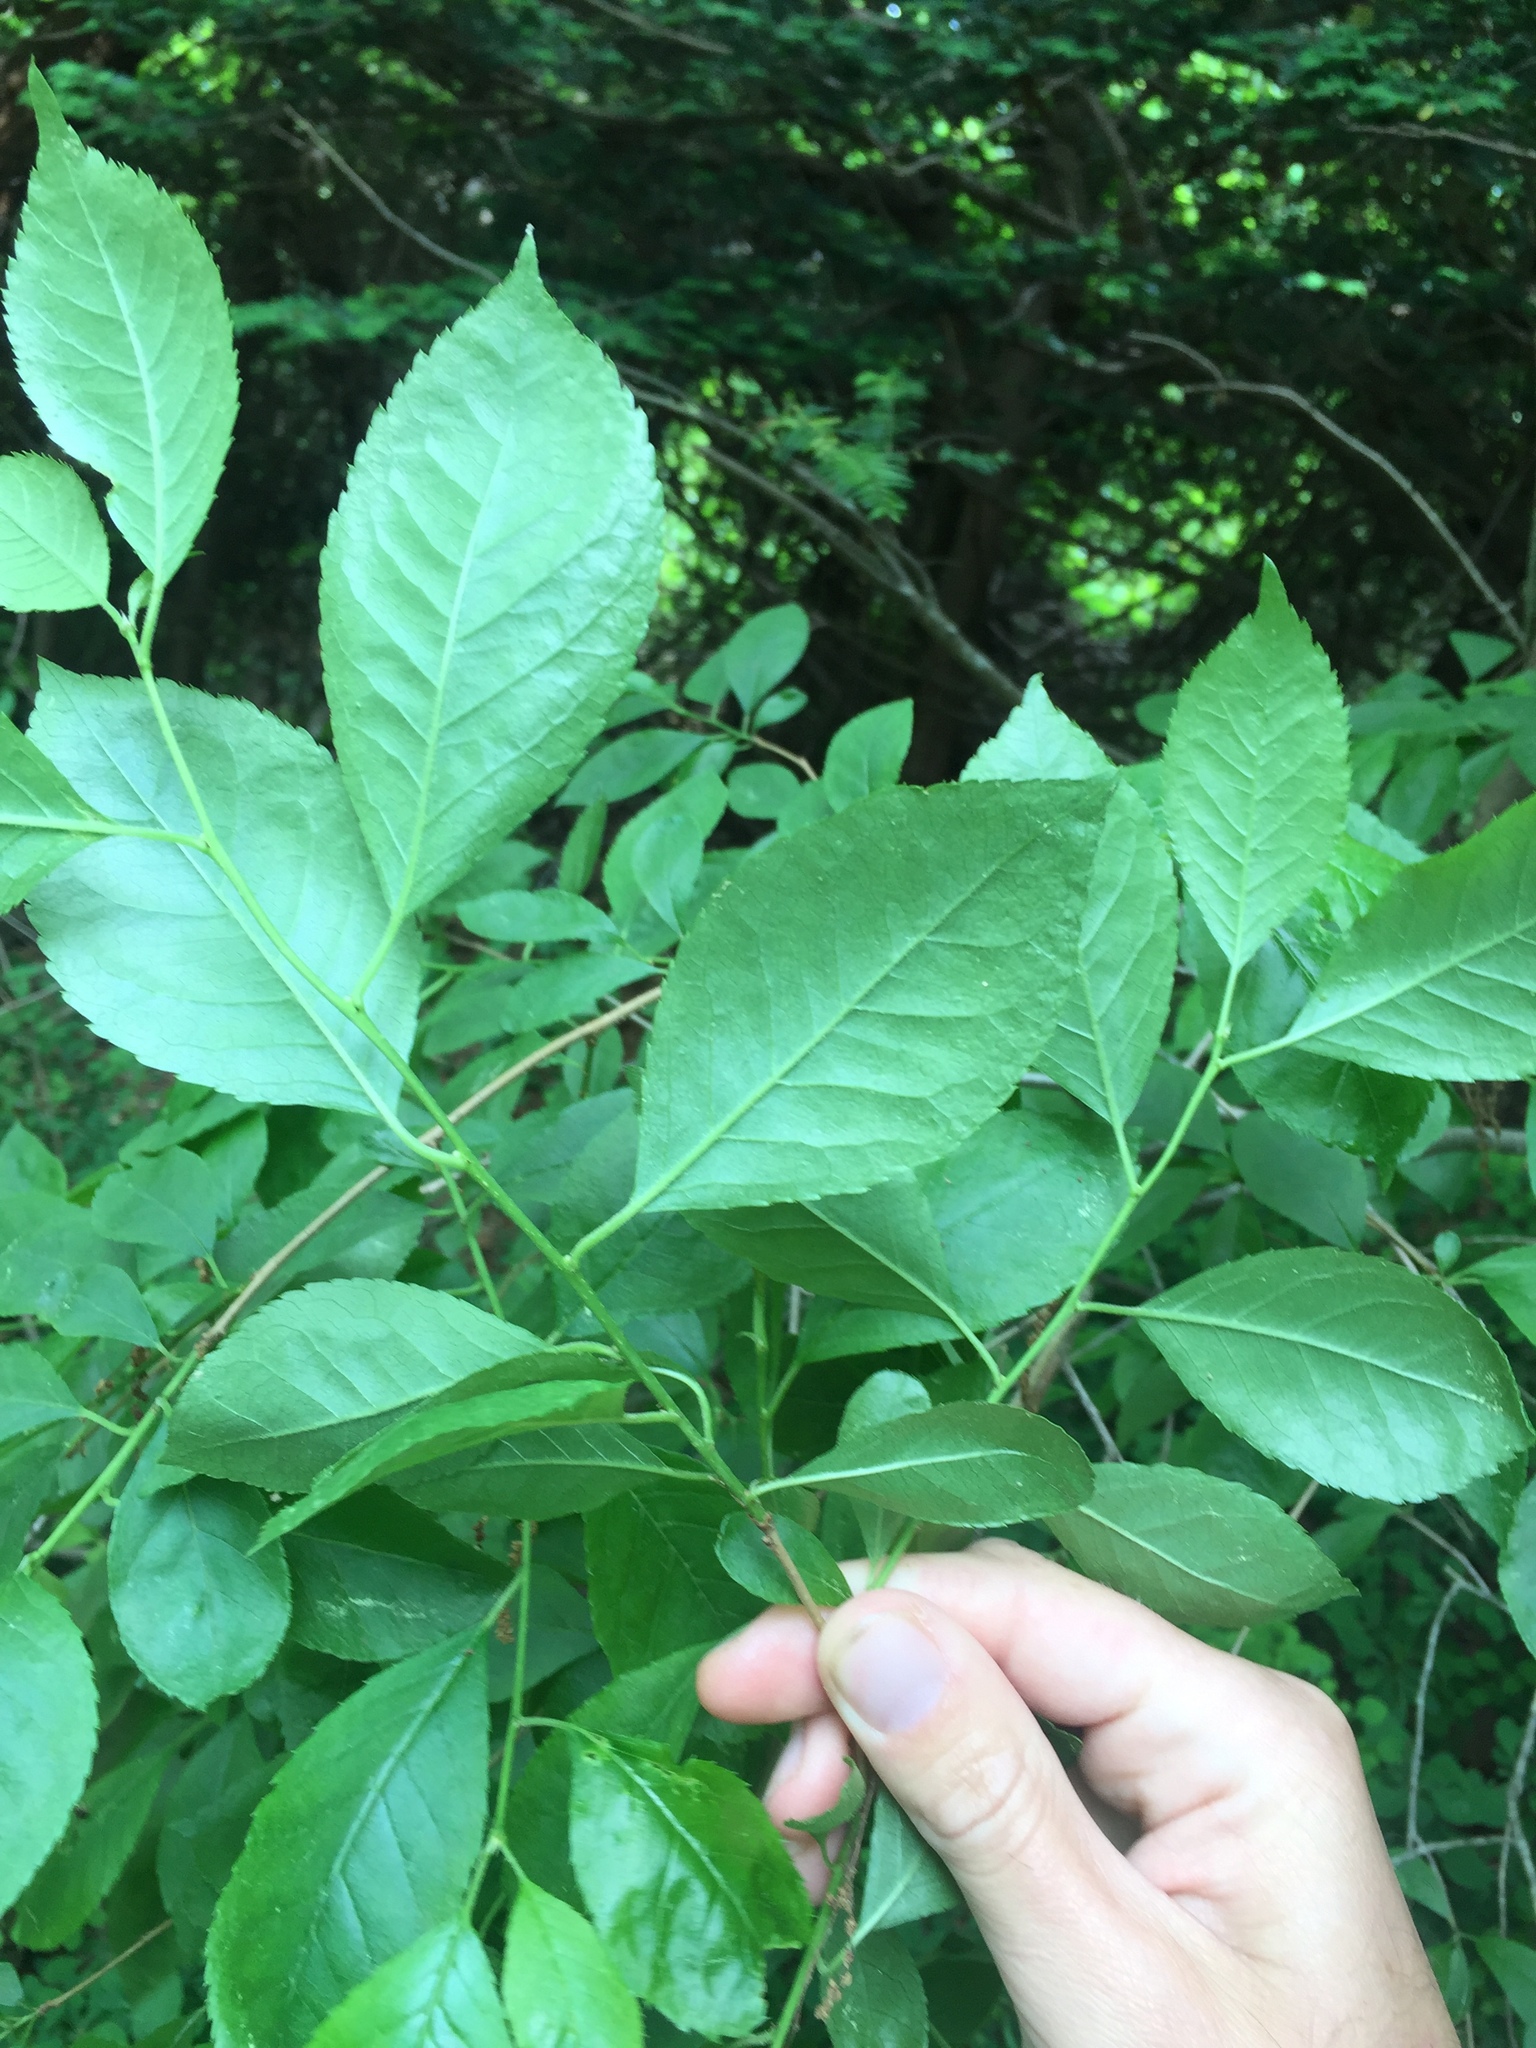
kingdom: Plantae
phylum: Tracheophyta
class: Magnoliopsida
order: Aquifoliales
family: Aquifoliaceae
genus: Ilex
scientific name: Ilex verticillata
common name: Virginia winterberry
